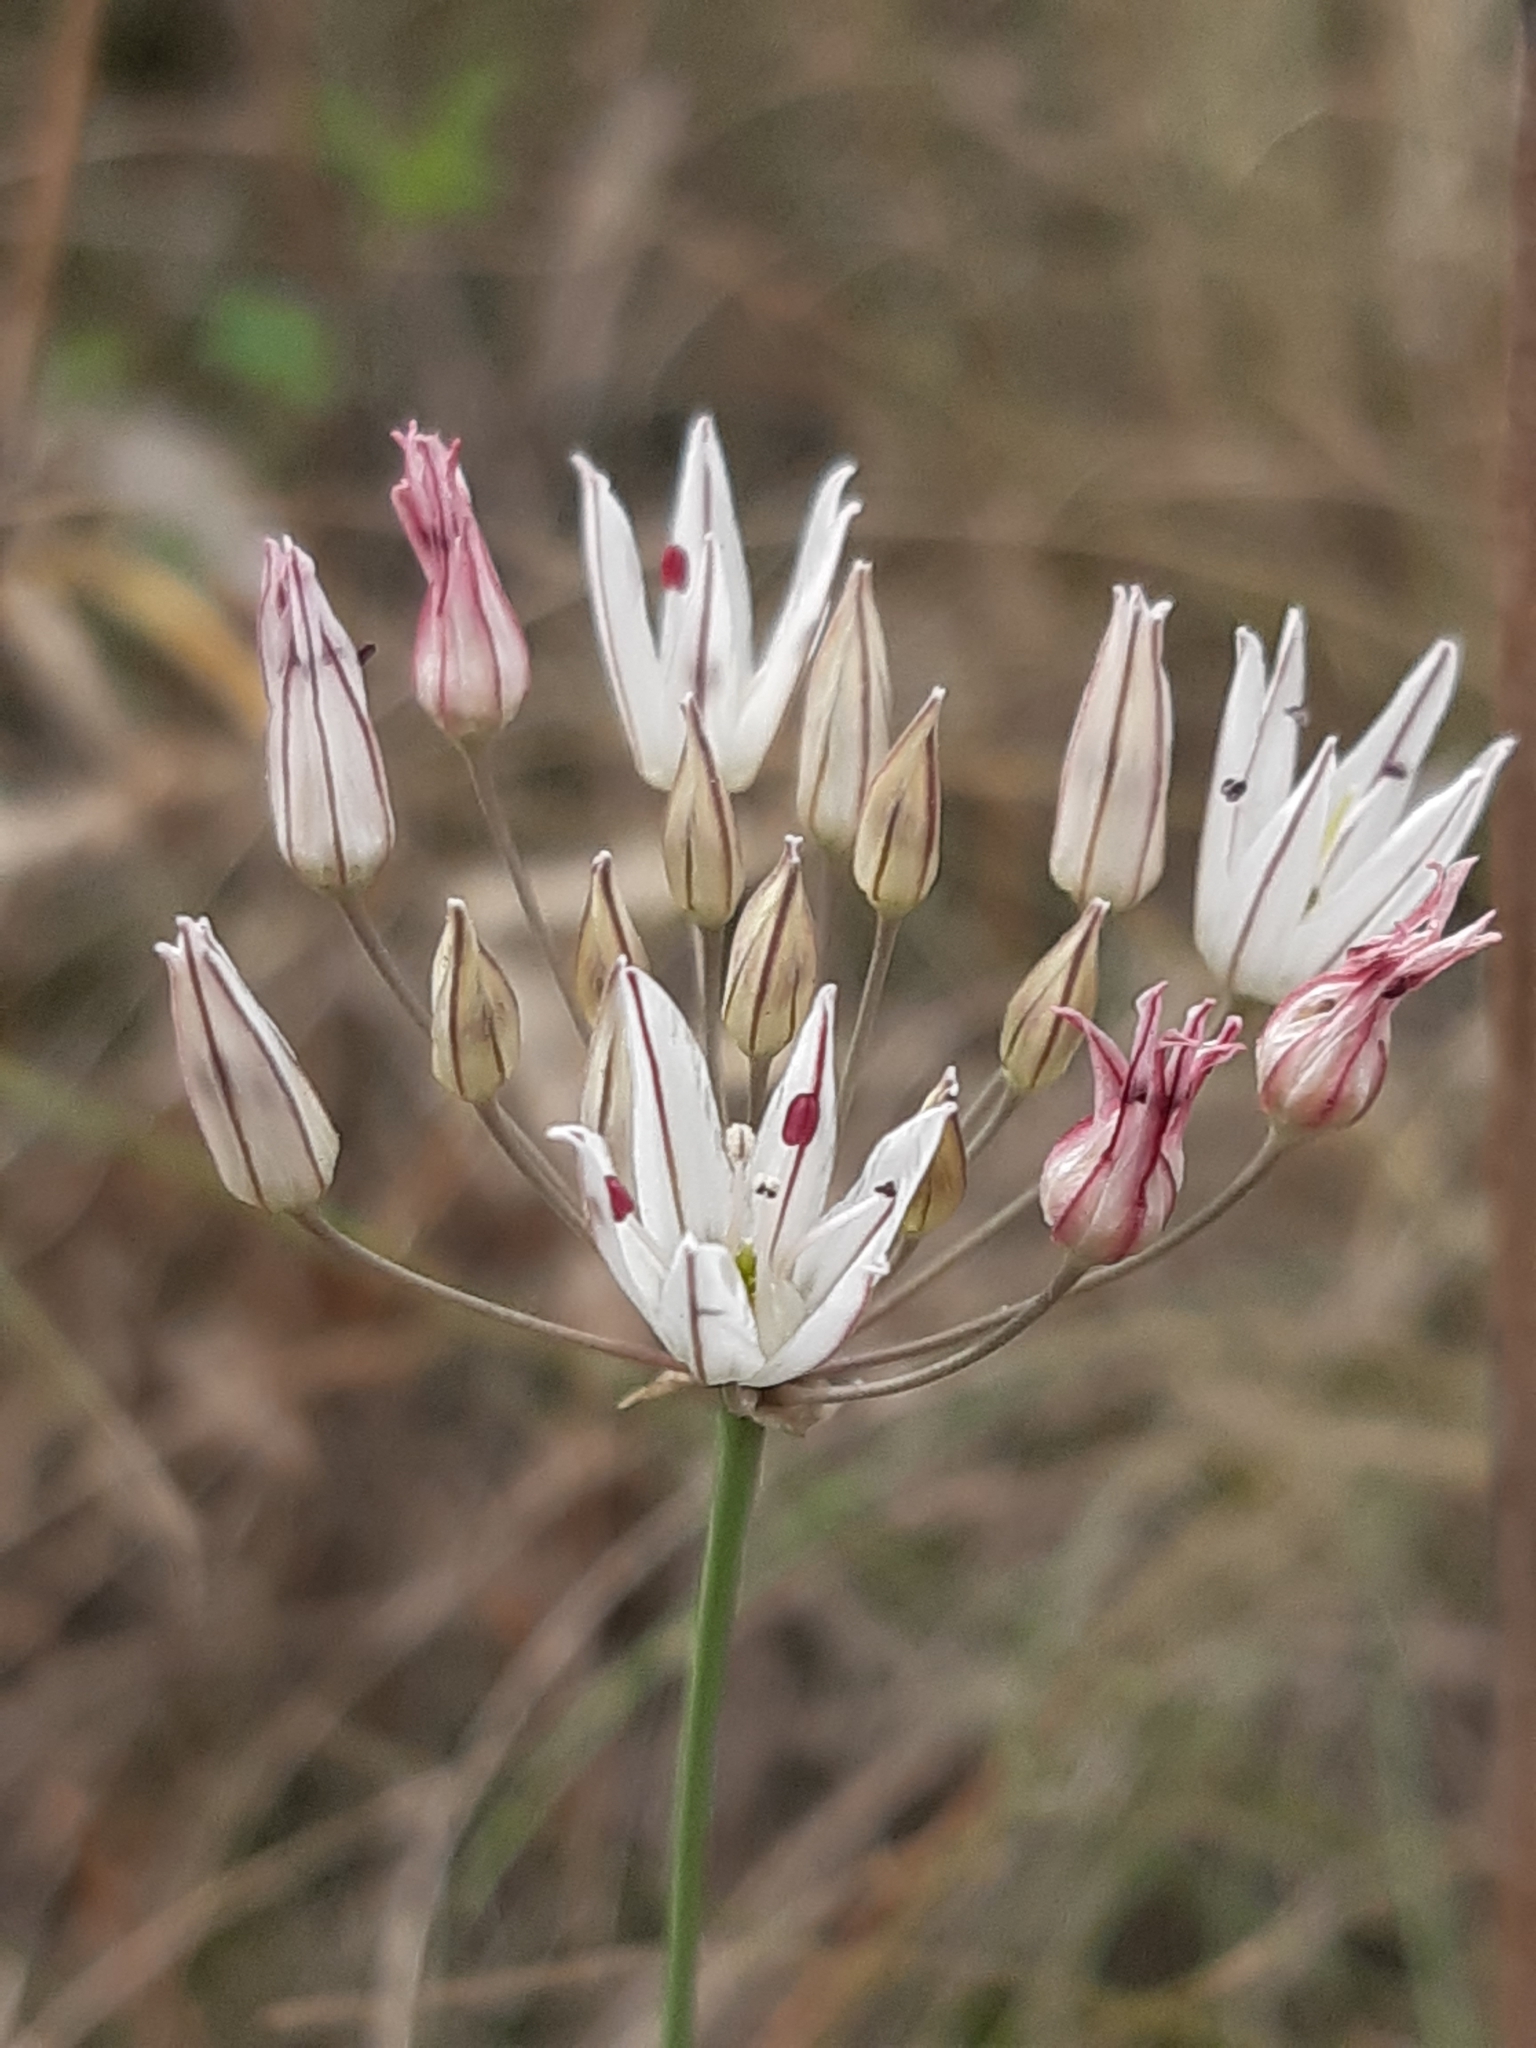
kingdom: Plantae
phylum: Tracheophyta
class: Liliopsida
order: Asparagales
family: Amaryllidaceae
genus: Allium
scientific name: Allium moschatum
